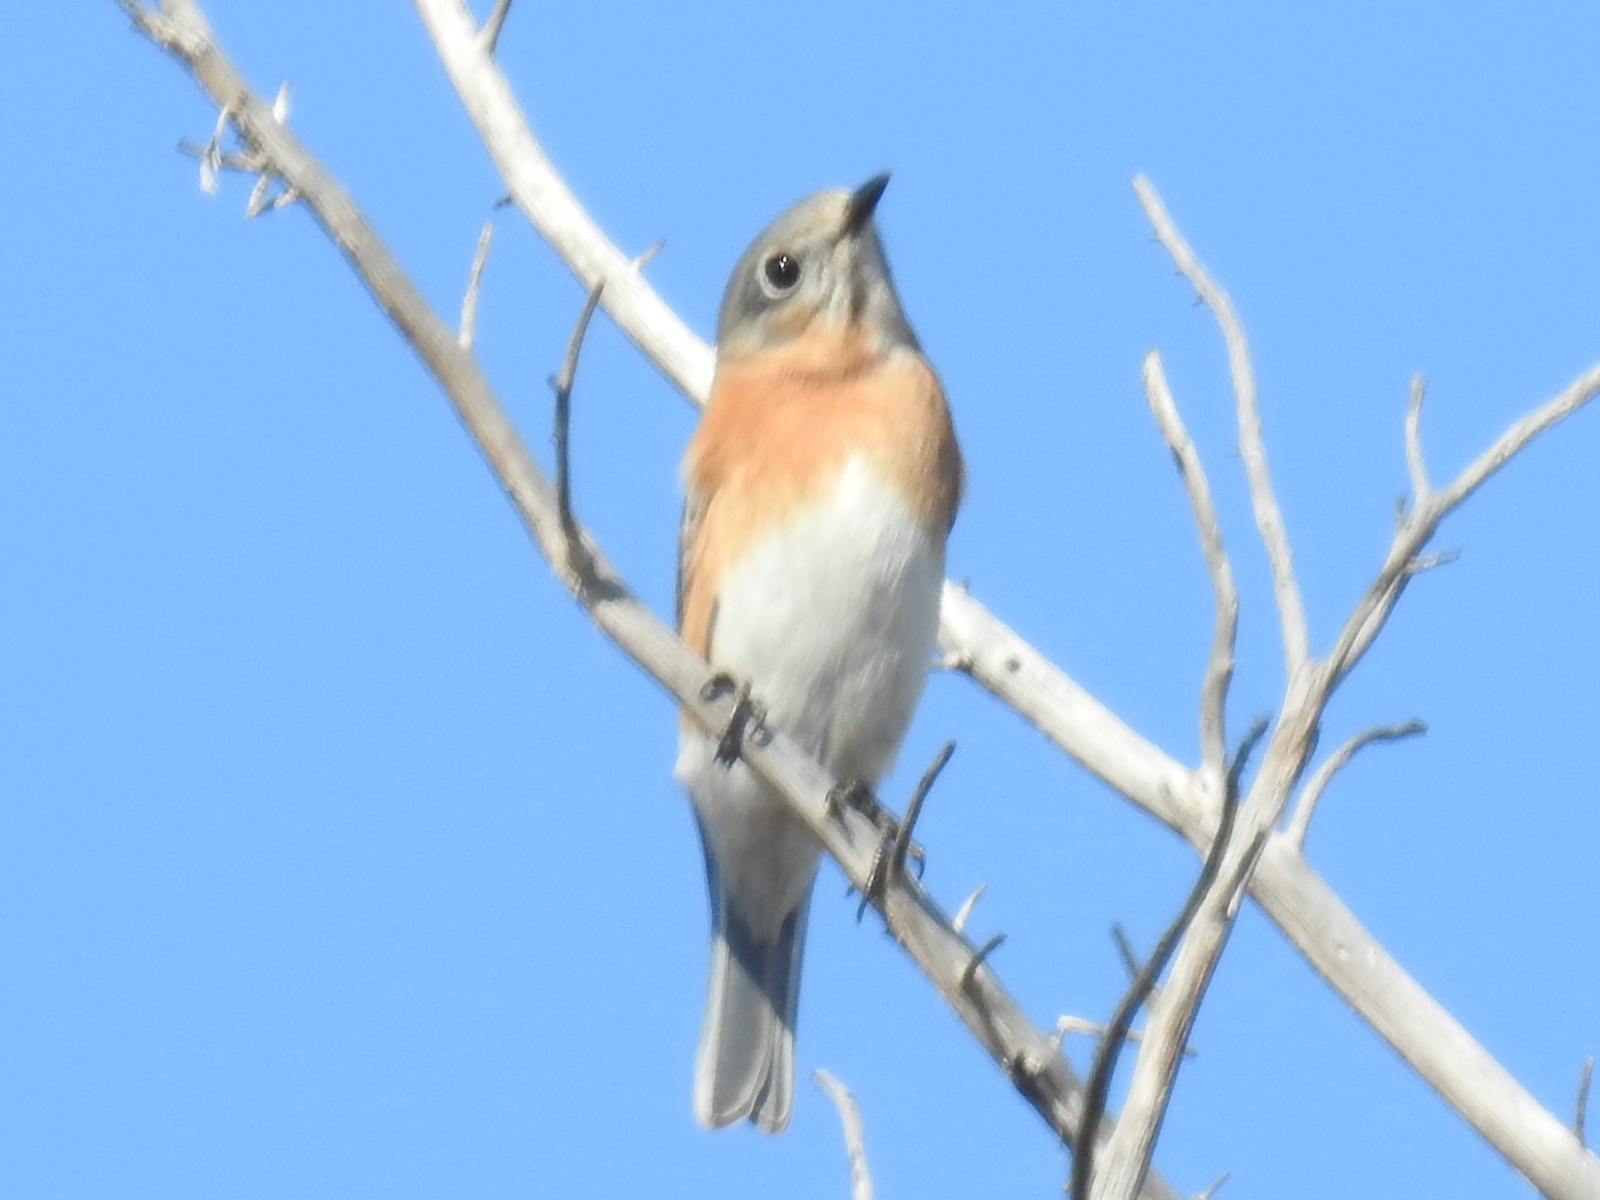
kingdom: Animalia
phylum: Chordata
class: Aves
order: Passeriformes
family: Turdidae
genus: Sialia
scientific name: Sialia sialis
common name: Eastern bluebird
